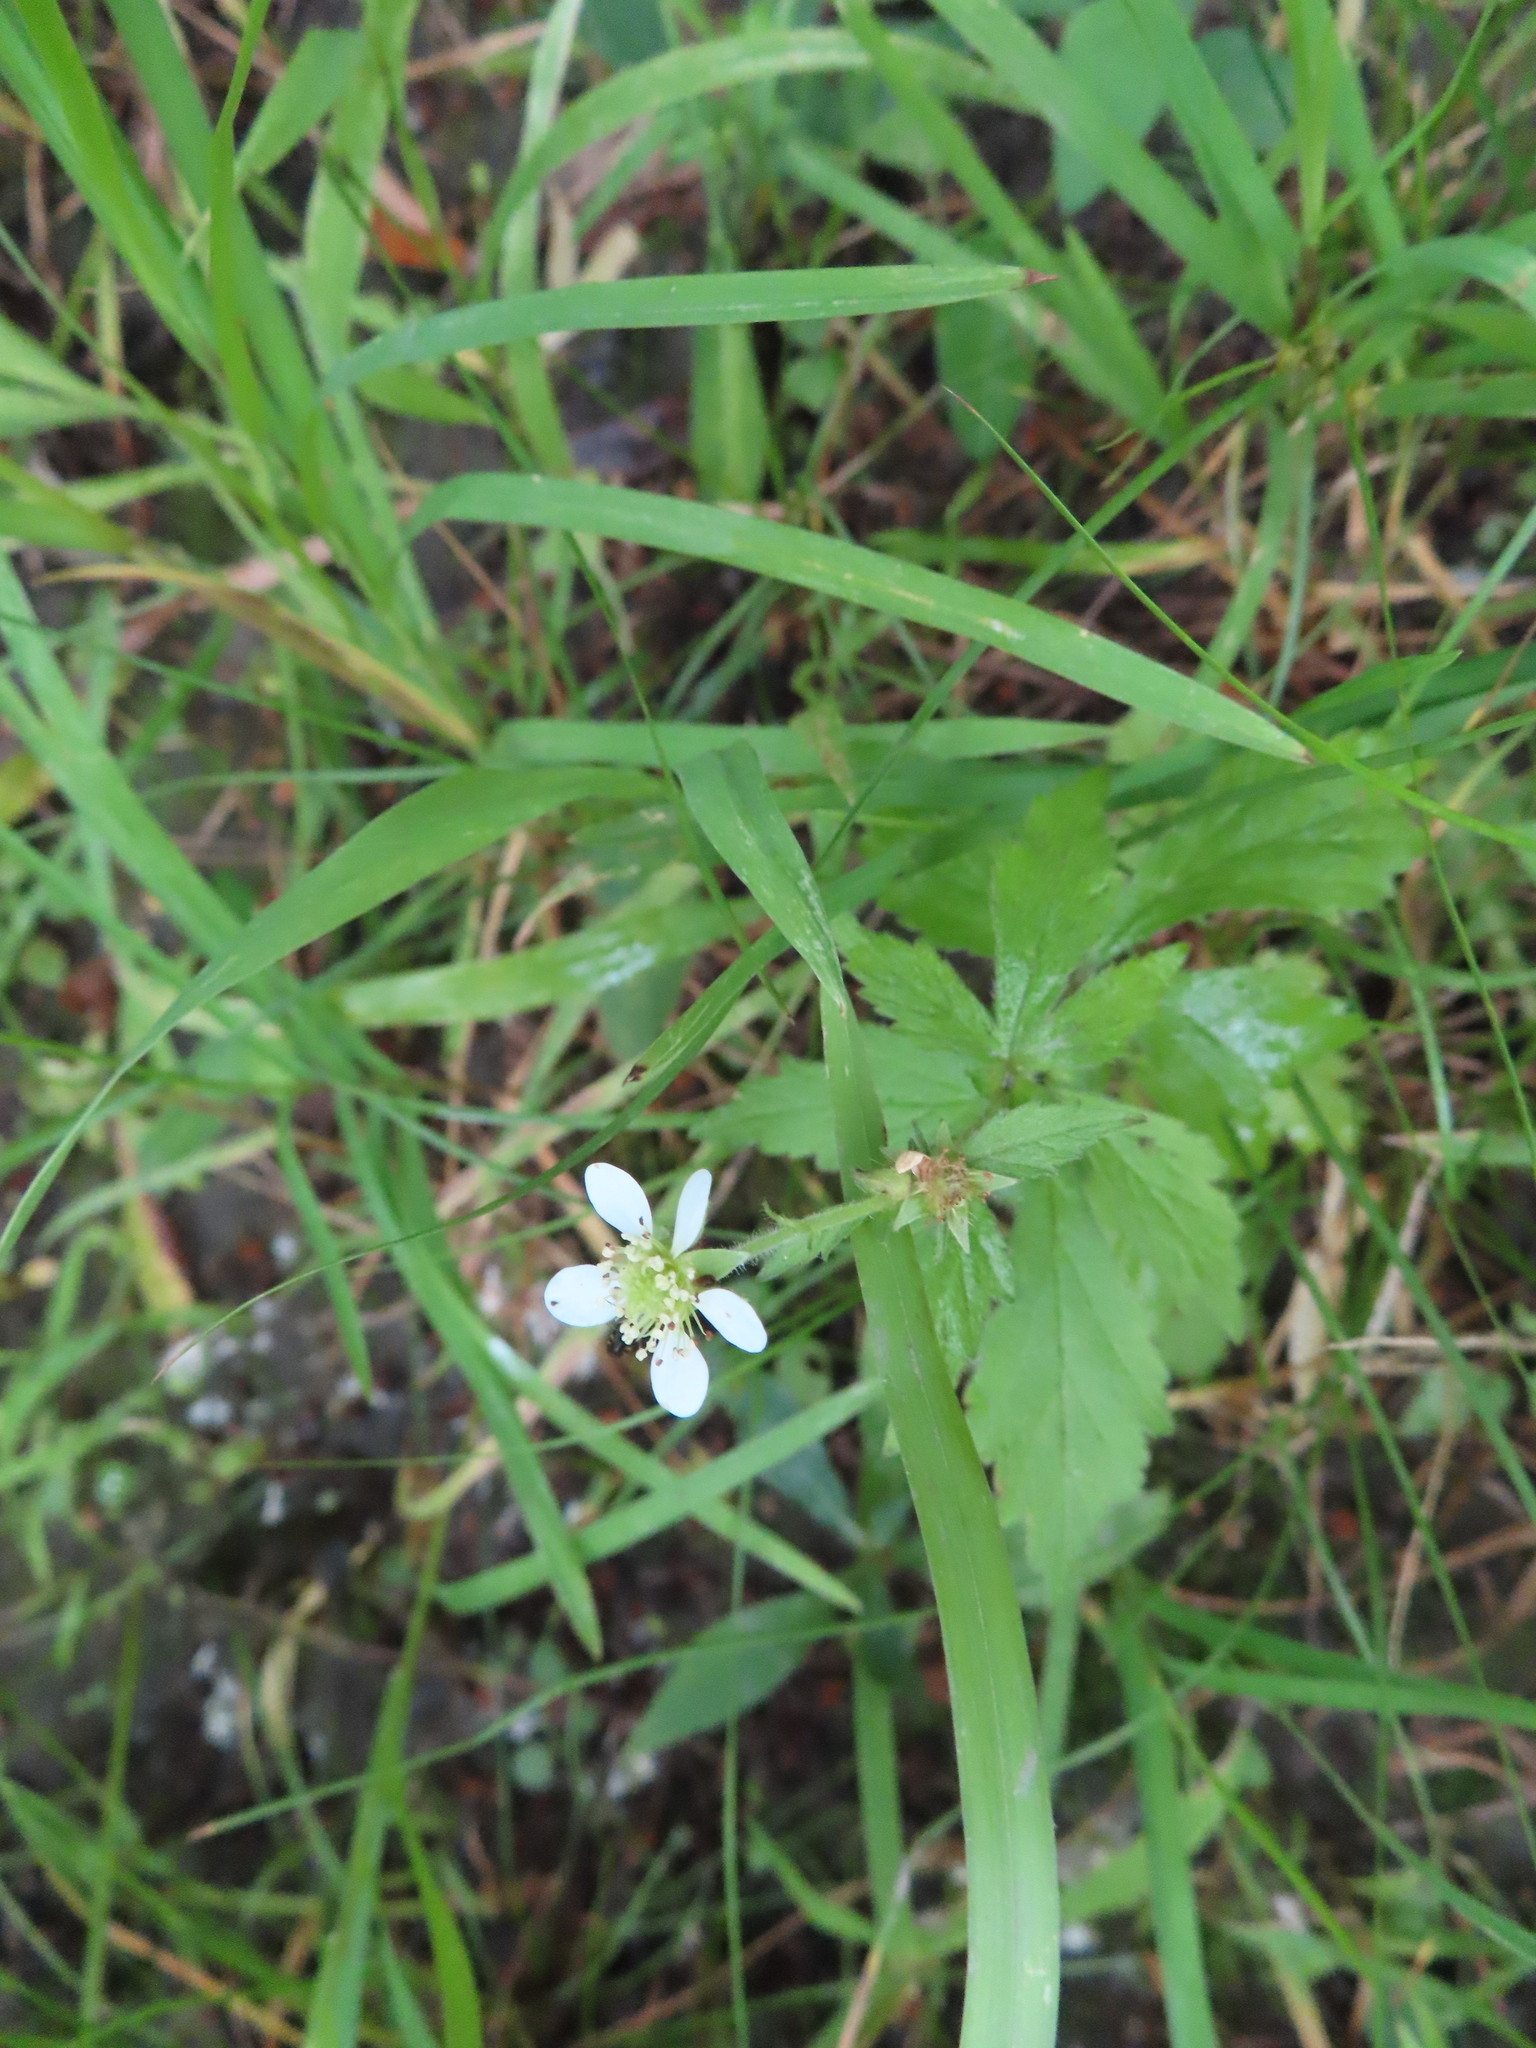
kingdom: Plantae
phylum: Tracheophyta
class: Magnoliopsida
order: Rosales
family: Rosaceae
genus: Geum
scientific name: Geum canadense
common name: White avens
